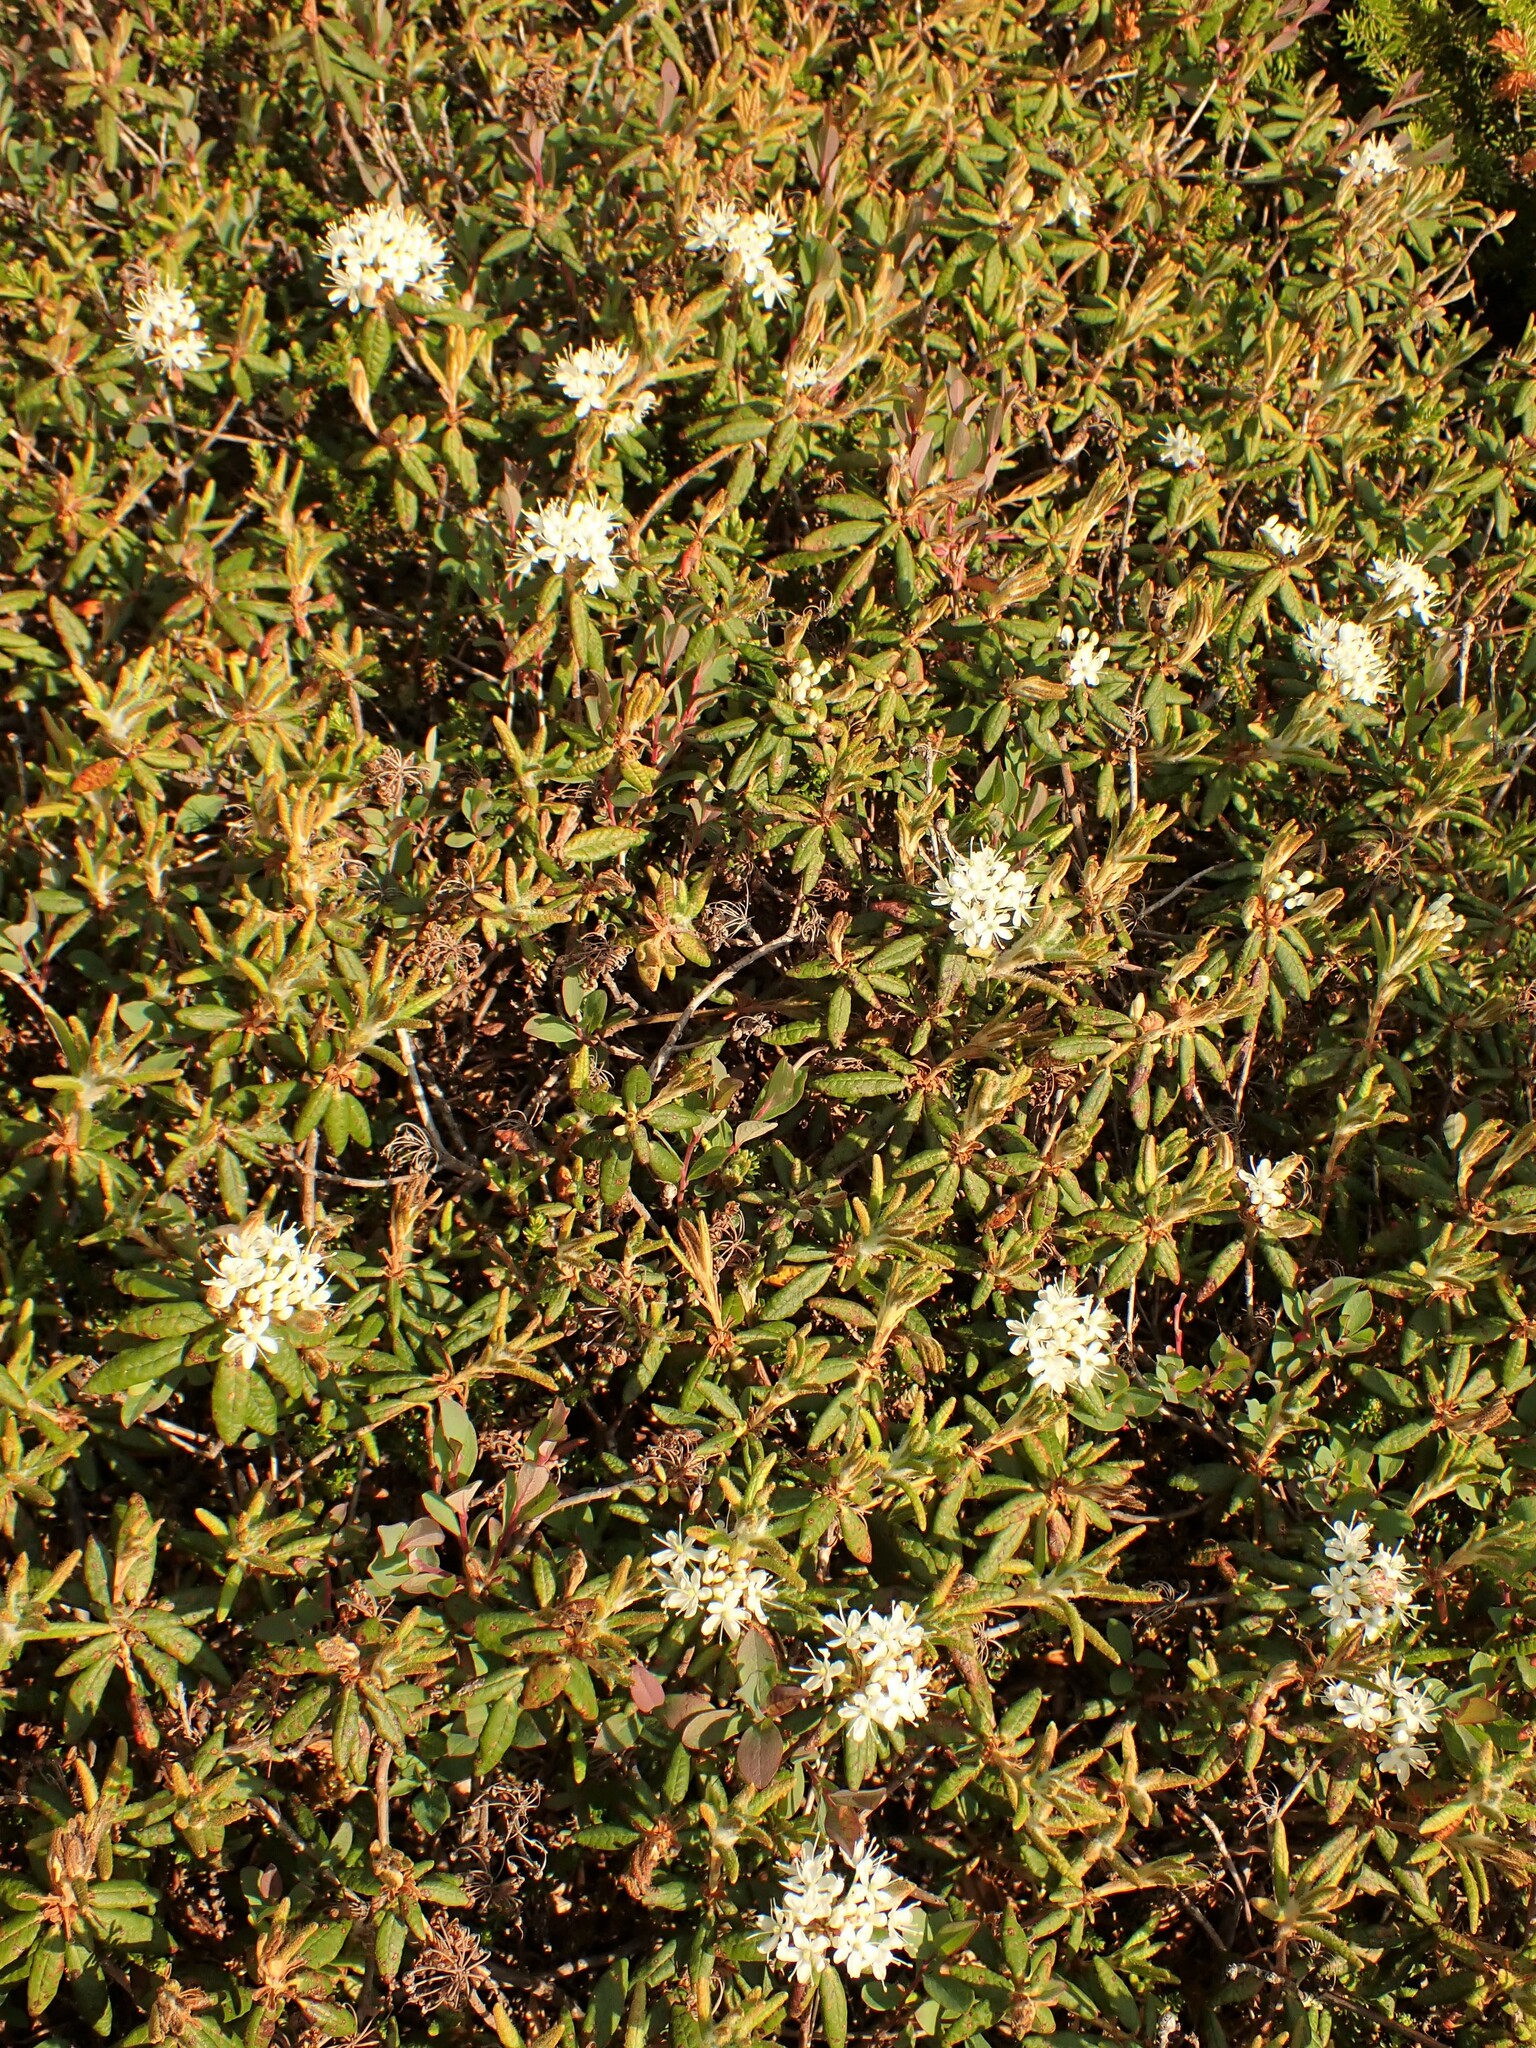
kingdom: Plantae
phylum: Tracheophyta
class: Magnoliopsida
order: Ericales
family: Ericaceae
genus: Rhododendron
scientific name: Rhododendron groenlandicum
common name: Bog labrador tea
